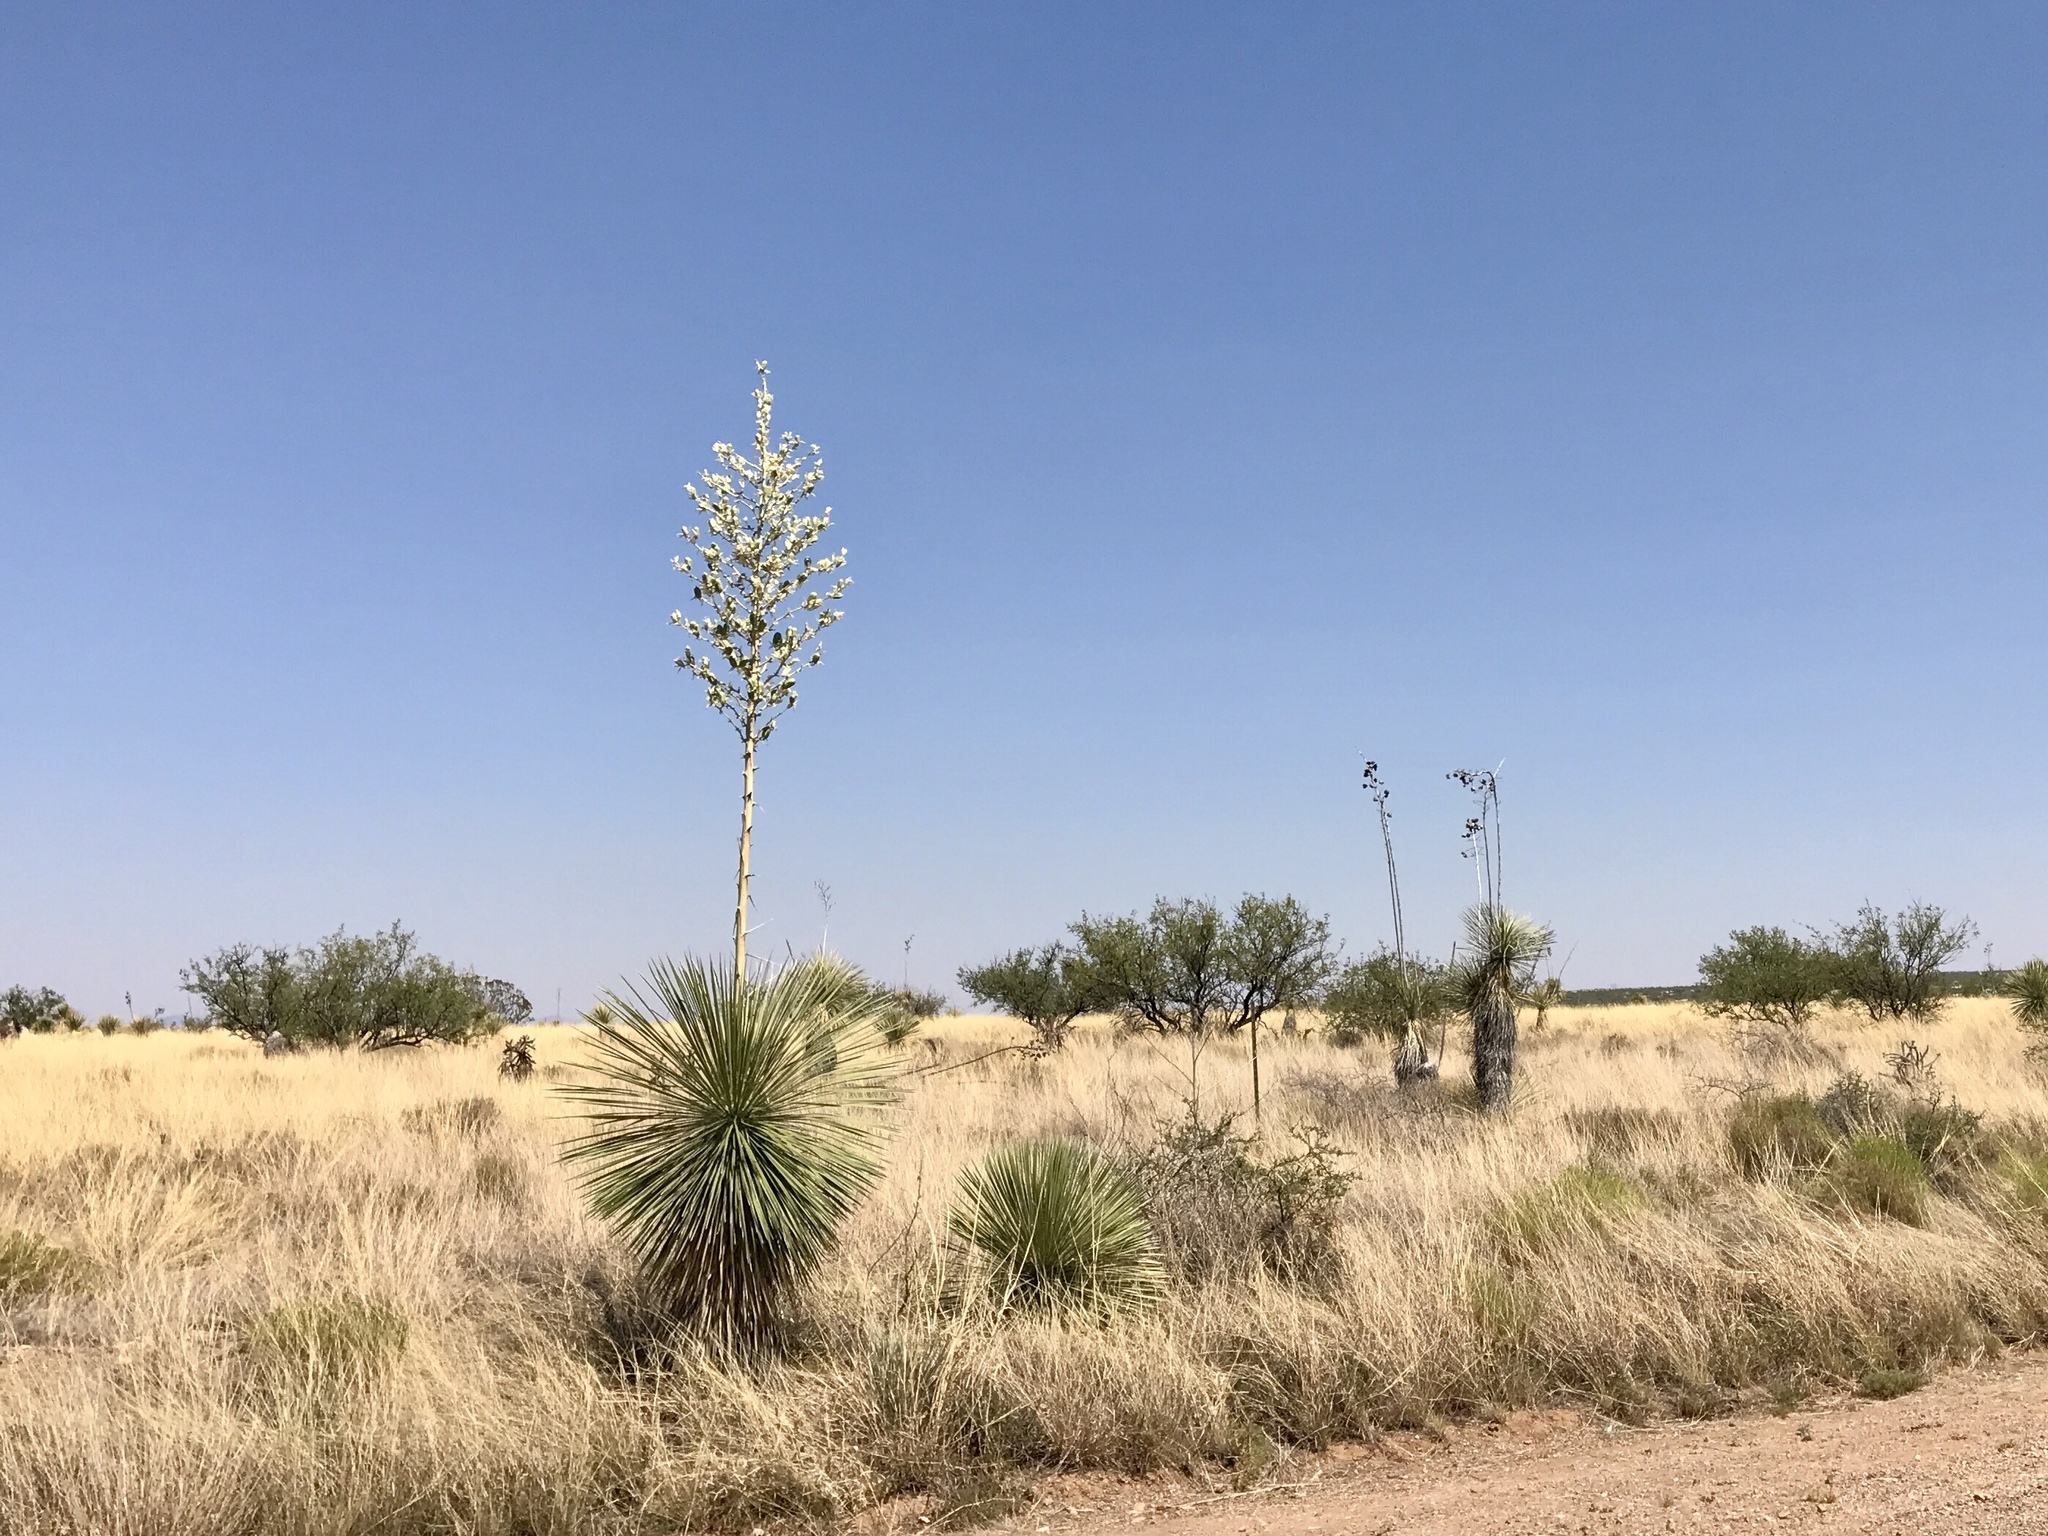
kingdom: Plantae
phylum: Tracheophyta
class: Liliopsida
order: Asparagales
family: Asparagaceae
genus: Yucca
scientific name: Yucca elata
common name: Palmella
